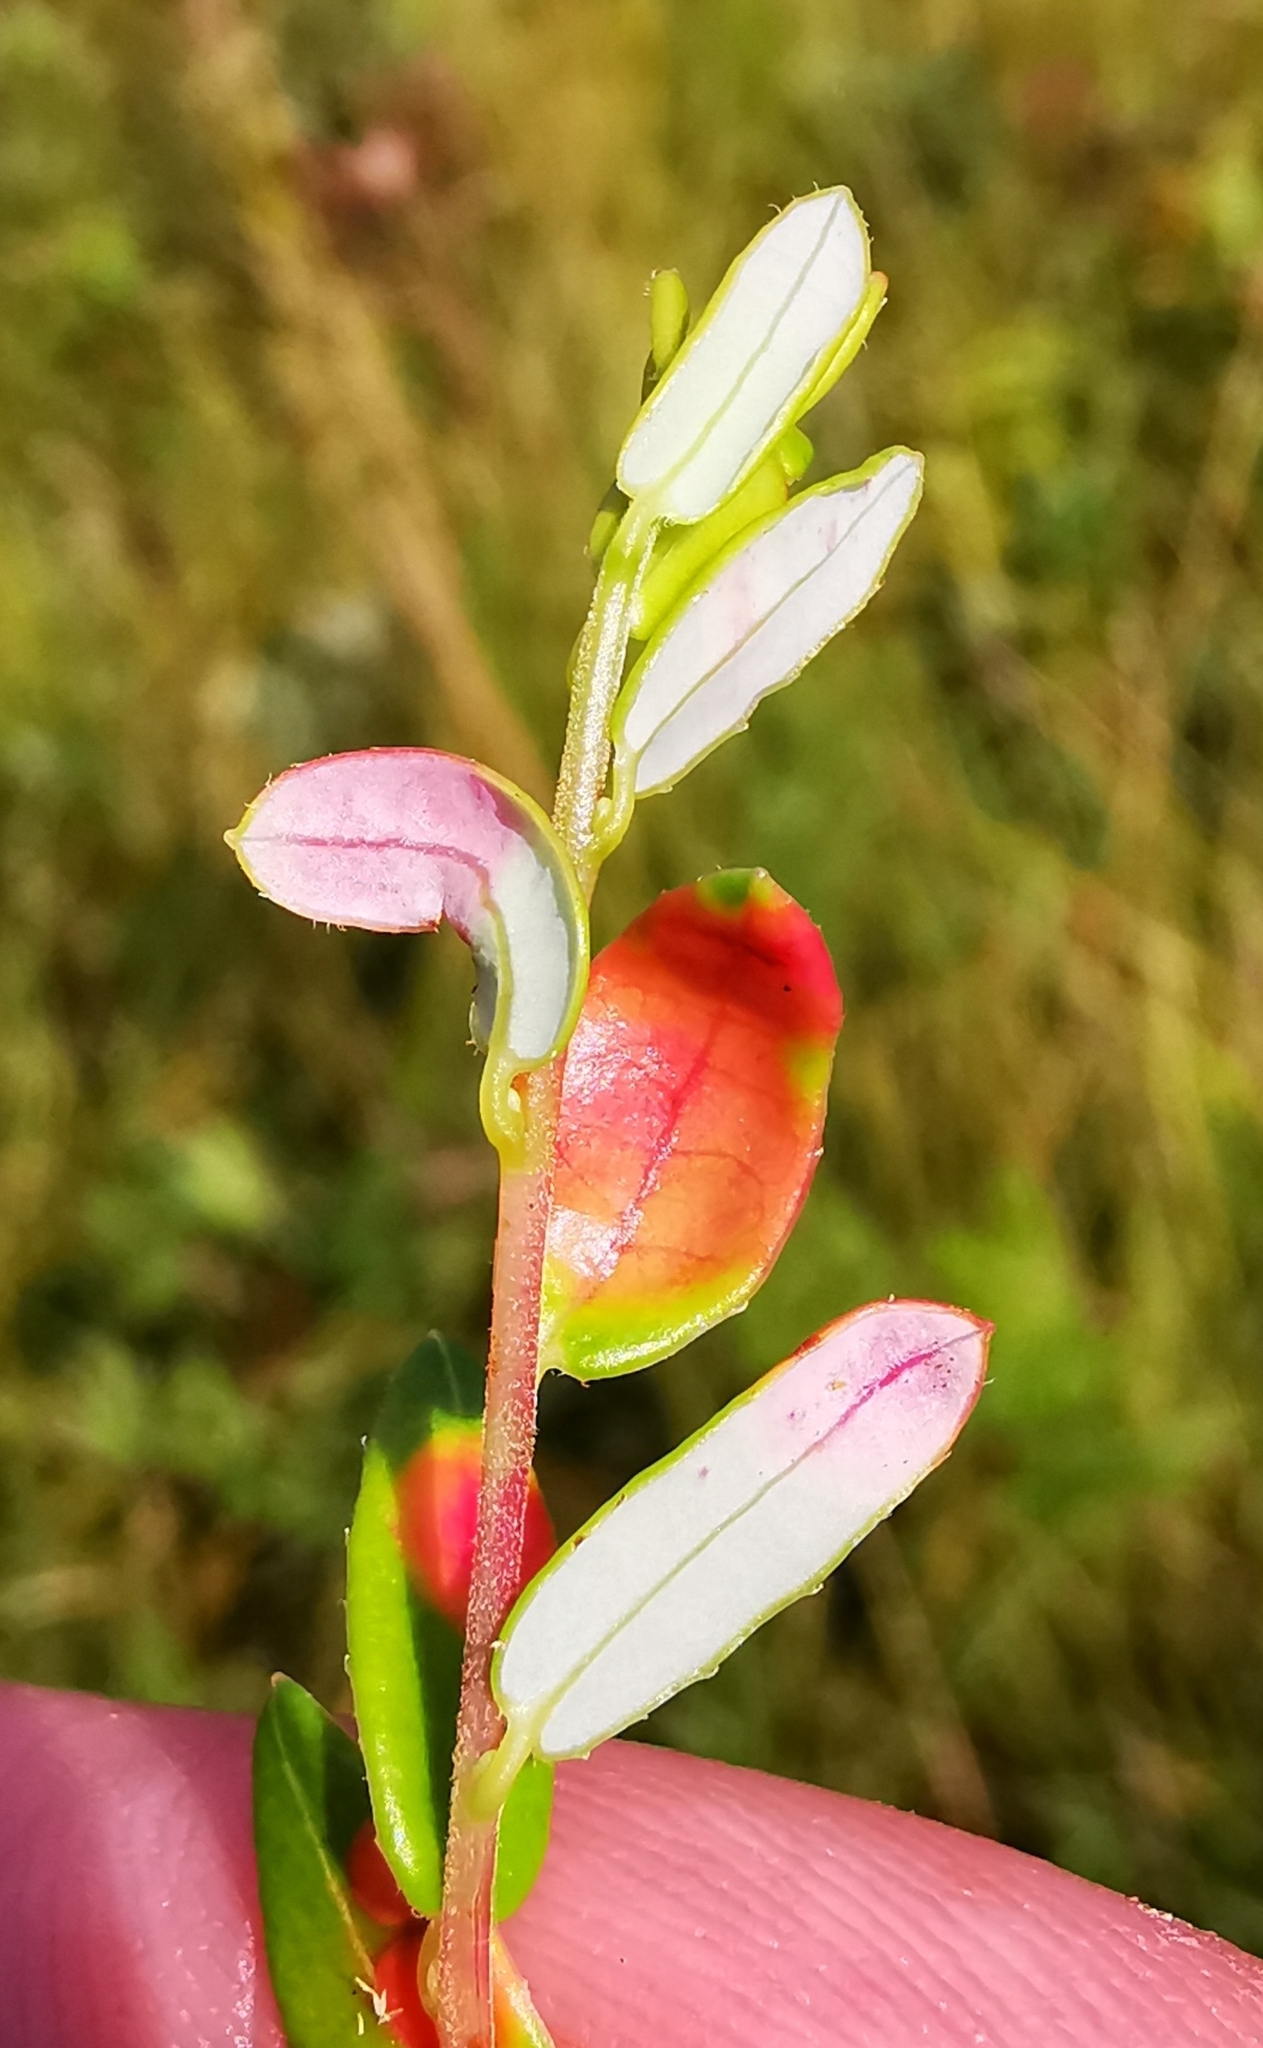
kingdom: Fungi
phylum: Basidiomycota
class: Exobasidiomycetes
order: Exobasidiales
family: Exobasidiaceae
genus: Exobasidium
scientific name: Exobasidium rostrupii
